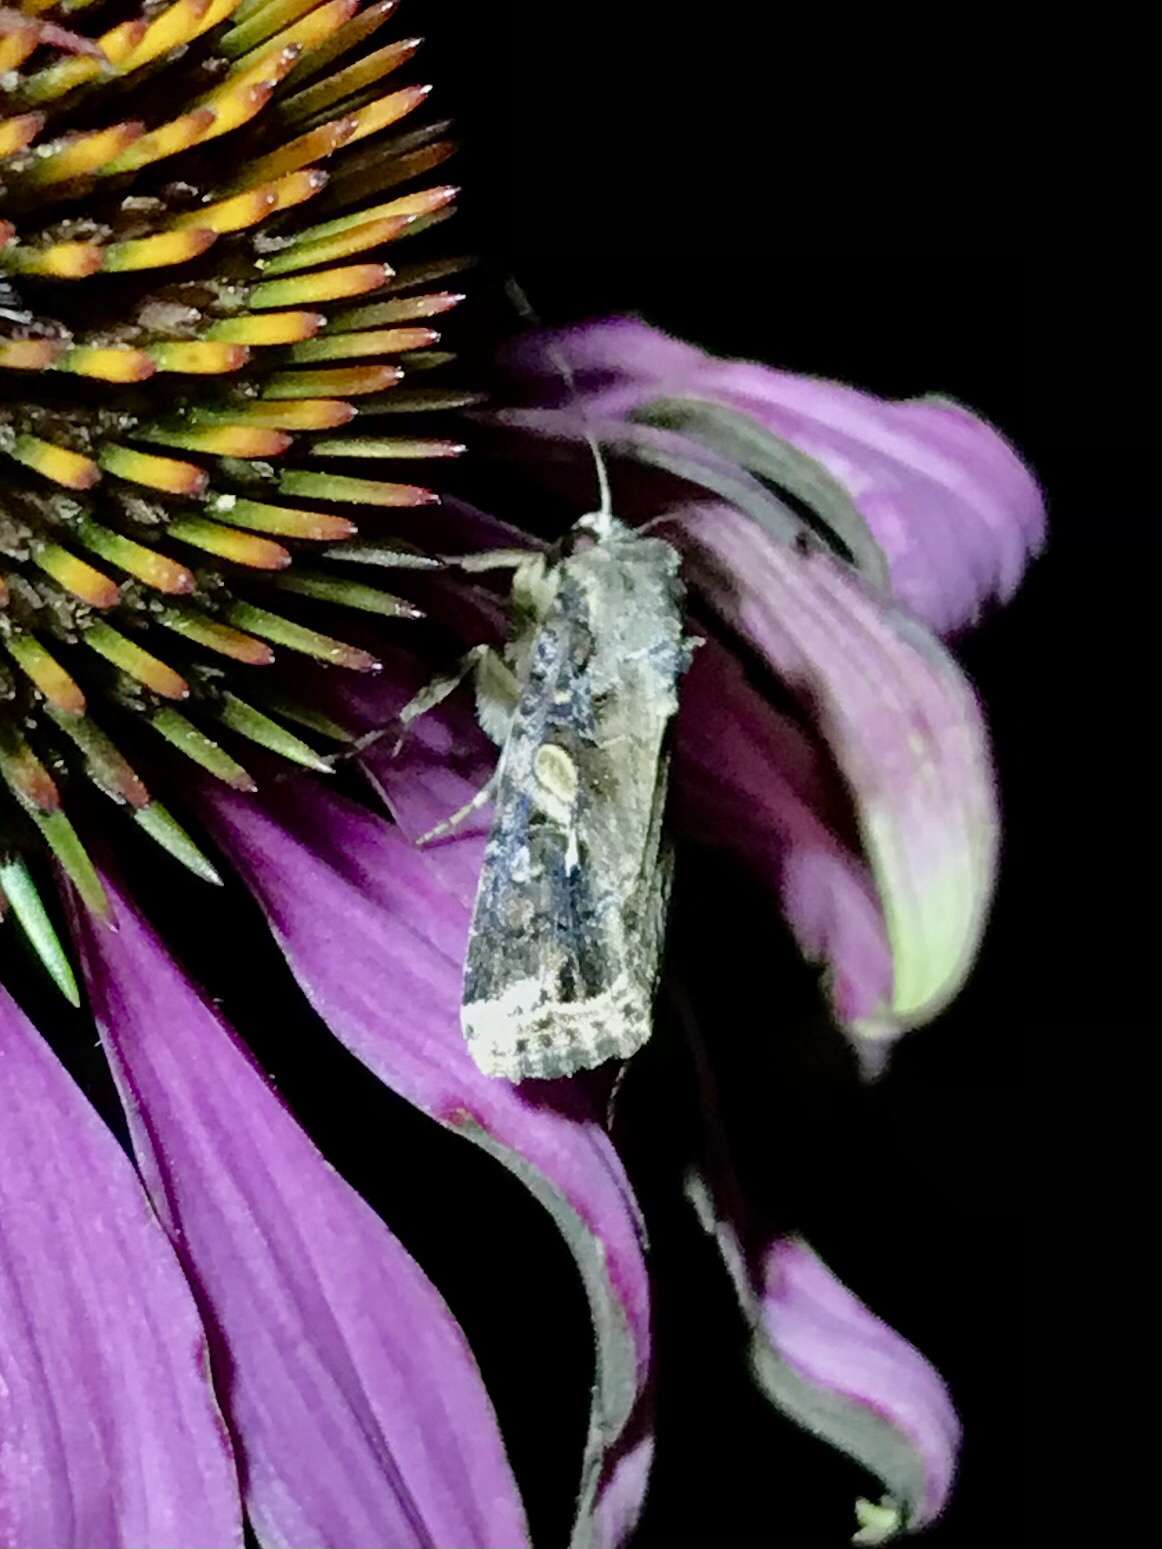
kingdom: Animalia
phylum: Arthropoda
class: Insecta
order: Lepidoptera
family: Noctuidae
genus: Spodoptera
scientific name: Spodoptera frugiperda
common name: Fall armyworm
